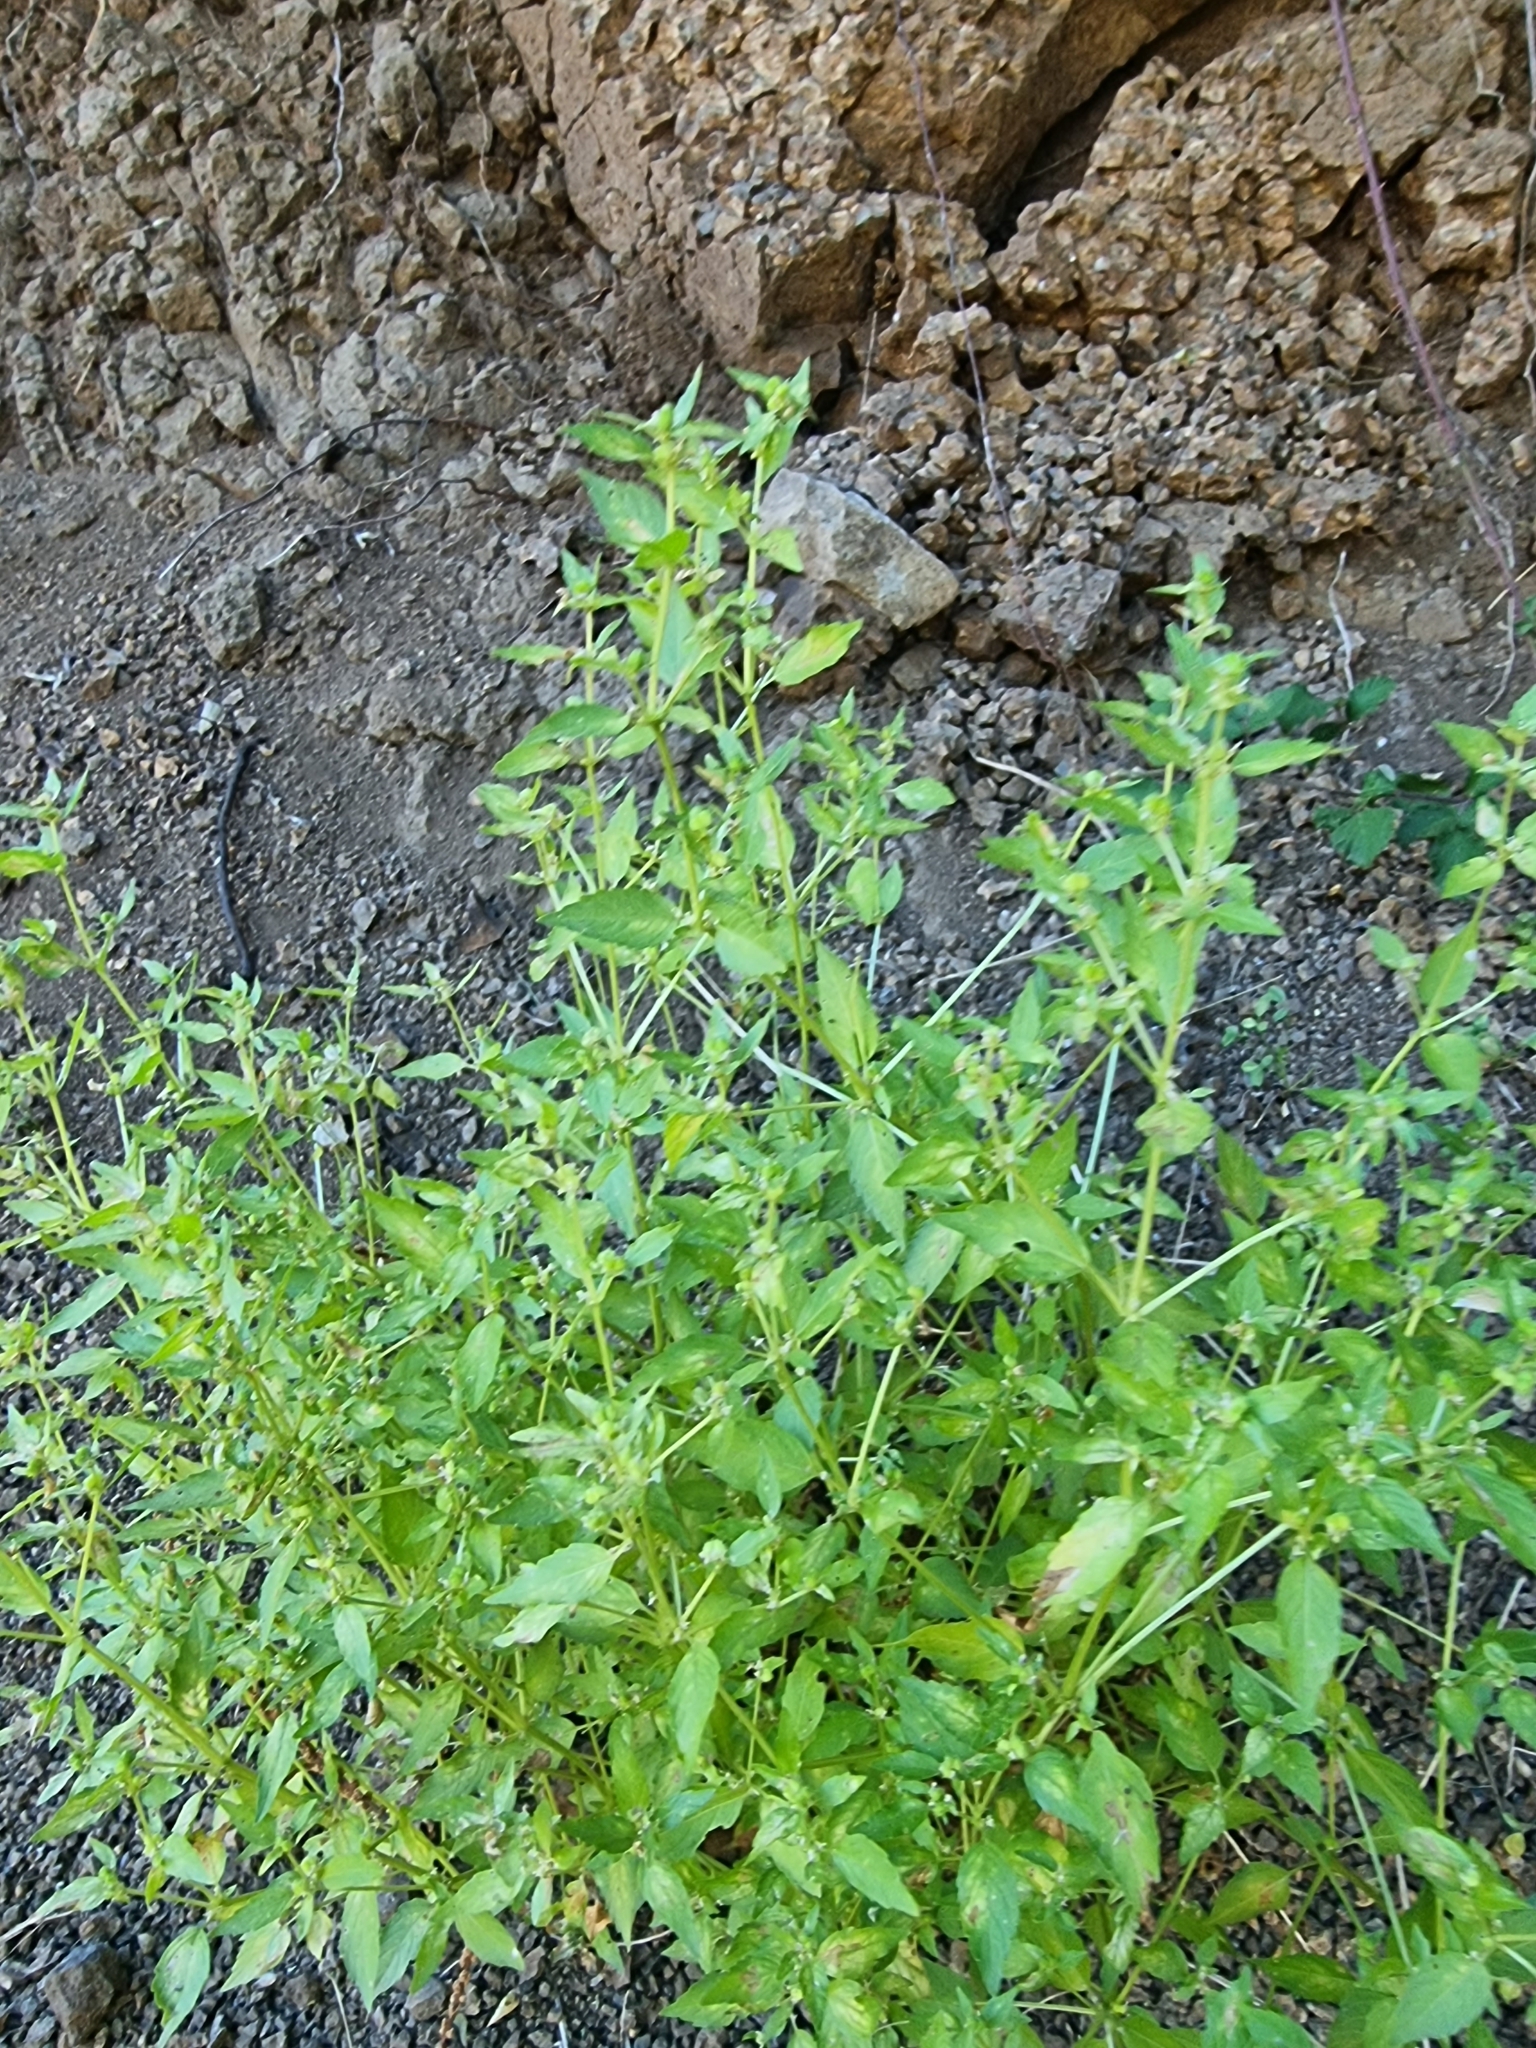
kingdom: Plantae
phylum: Tracheophyta
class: Magnoliopsida
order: Malpighiales
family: Euphorbiaceae
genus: Mercurialis
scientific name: Mercurialis annua
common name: Annual mercury
